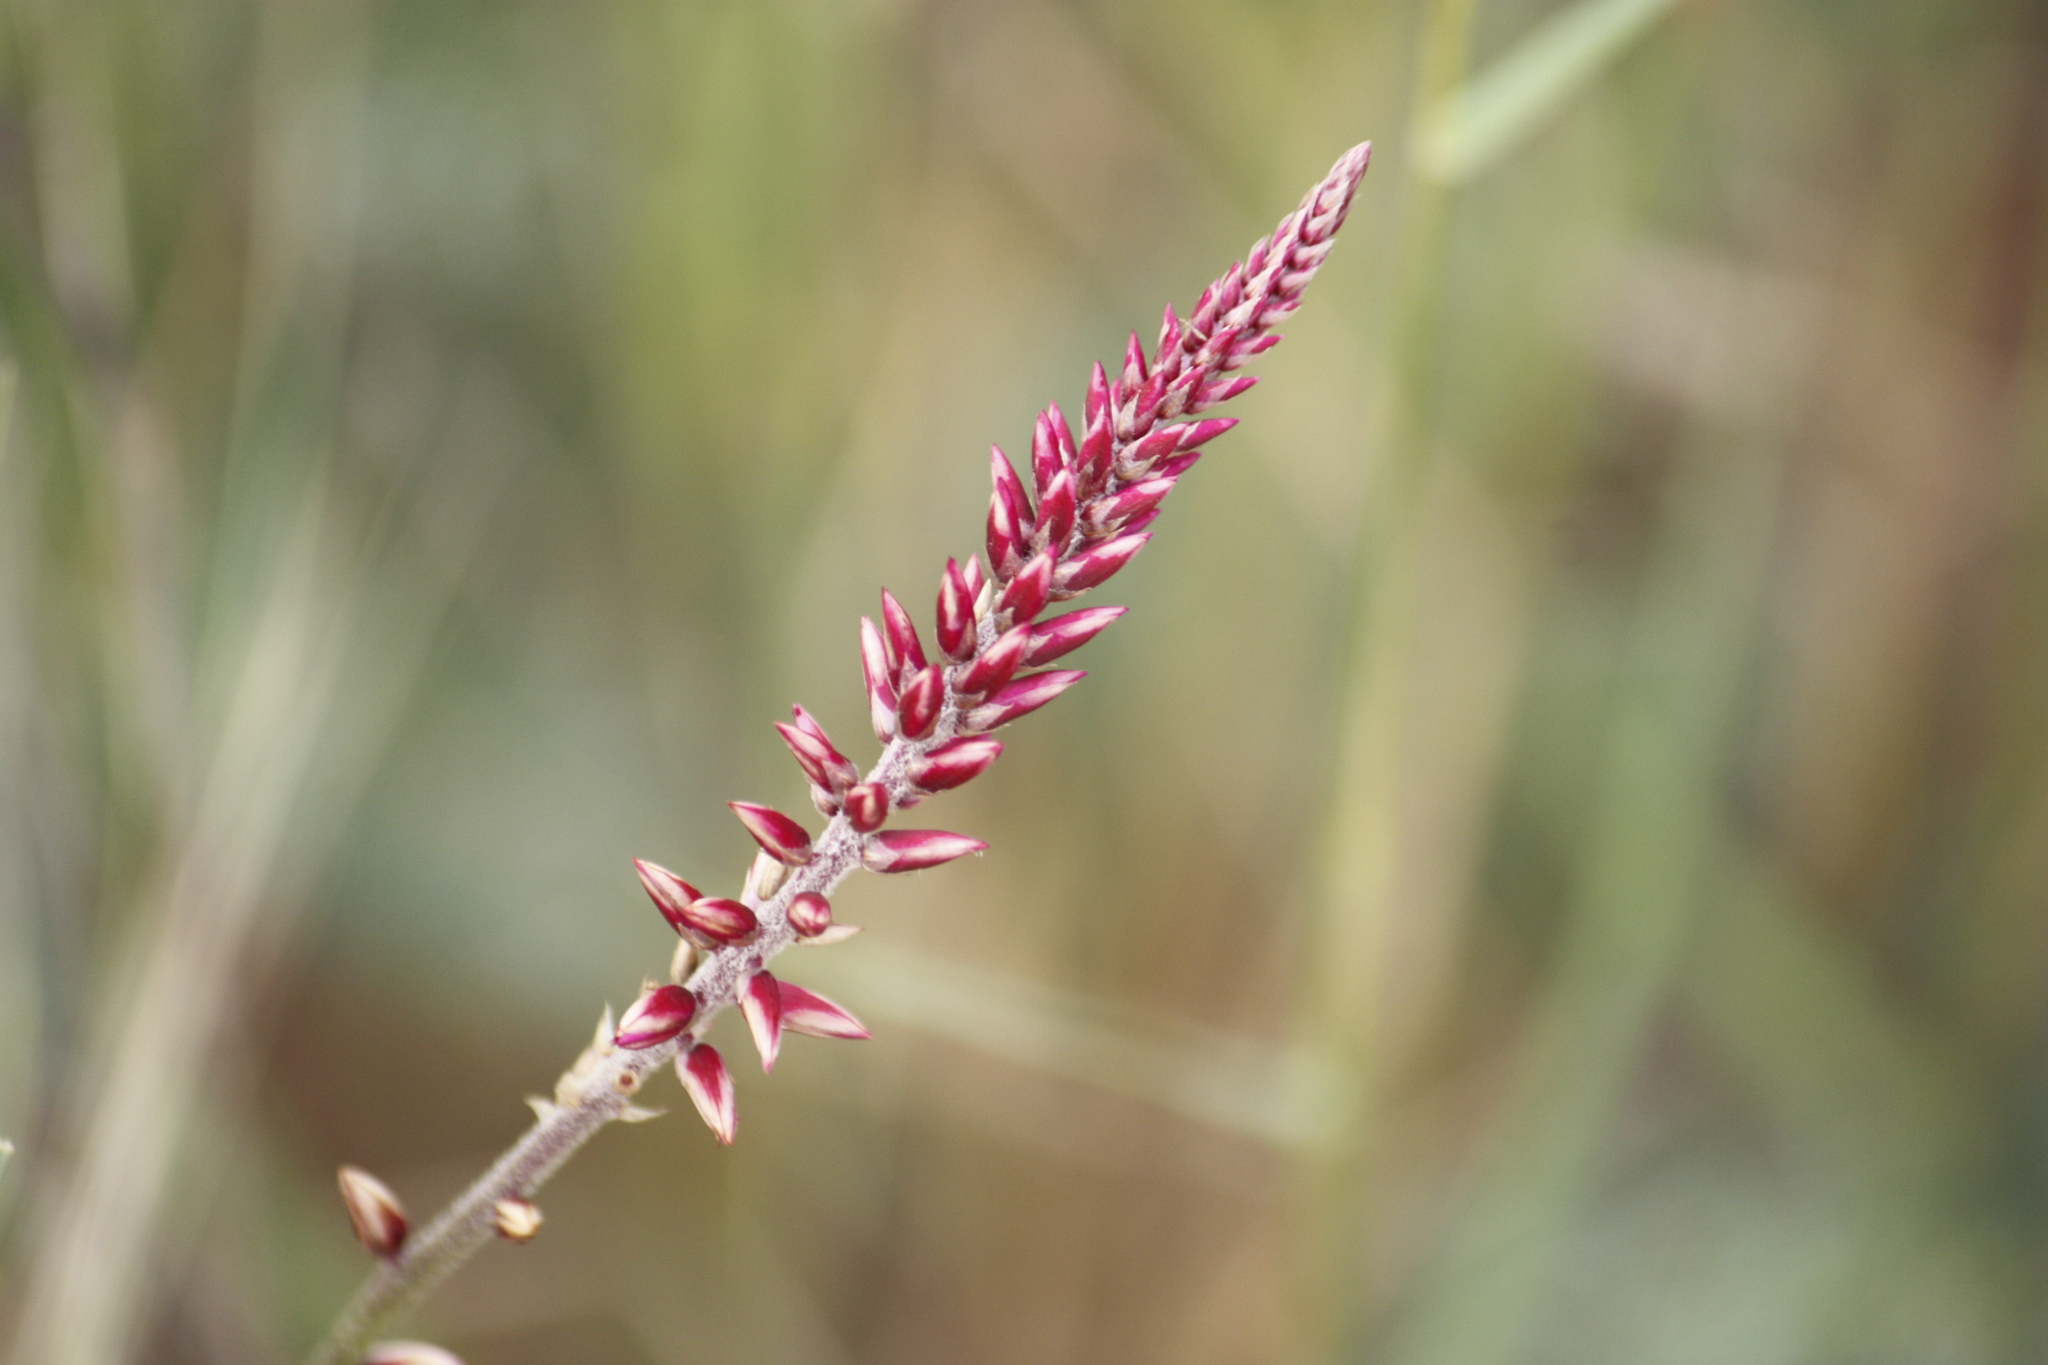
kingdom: Plantae
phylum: Tracheophyta
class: Magnoliopsida
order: Caryophyllales
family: Amaranthaceae
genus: Hermbstaedtia
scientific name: Hermbstaedtia odorata
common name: Guineaflower
